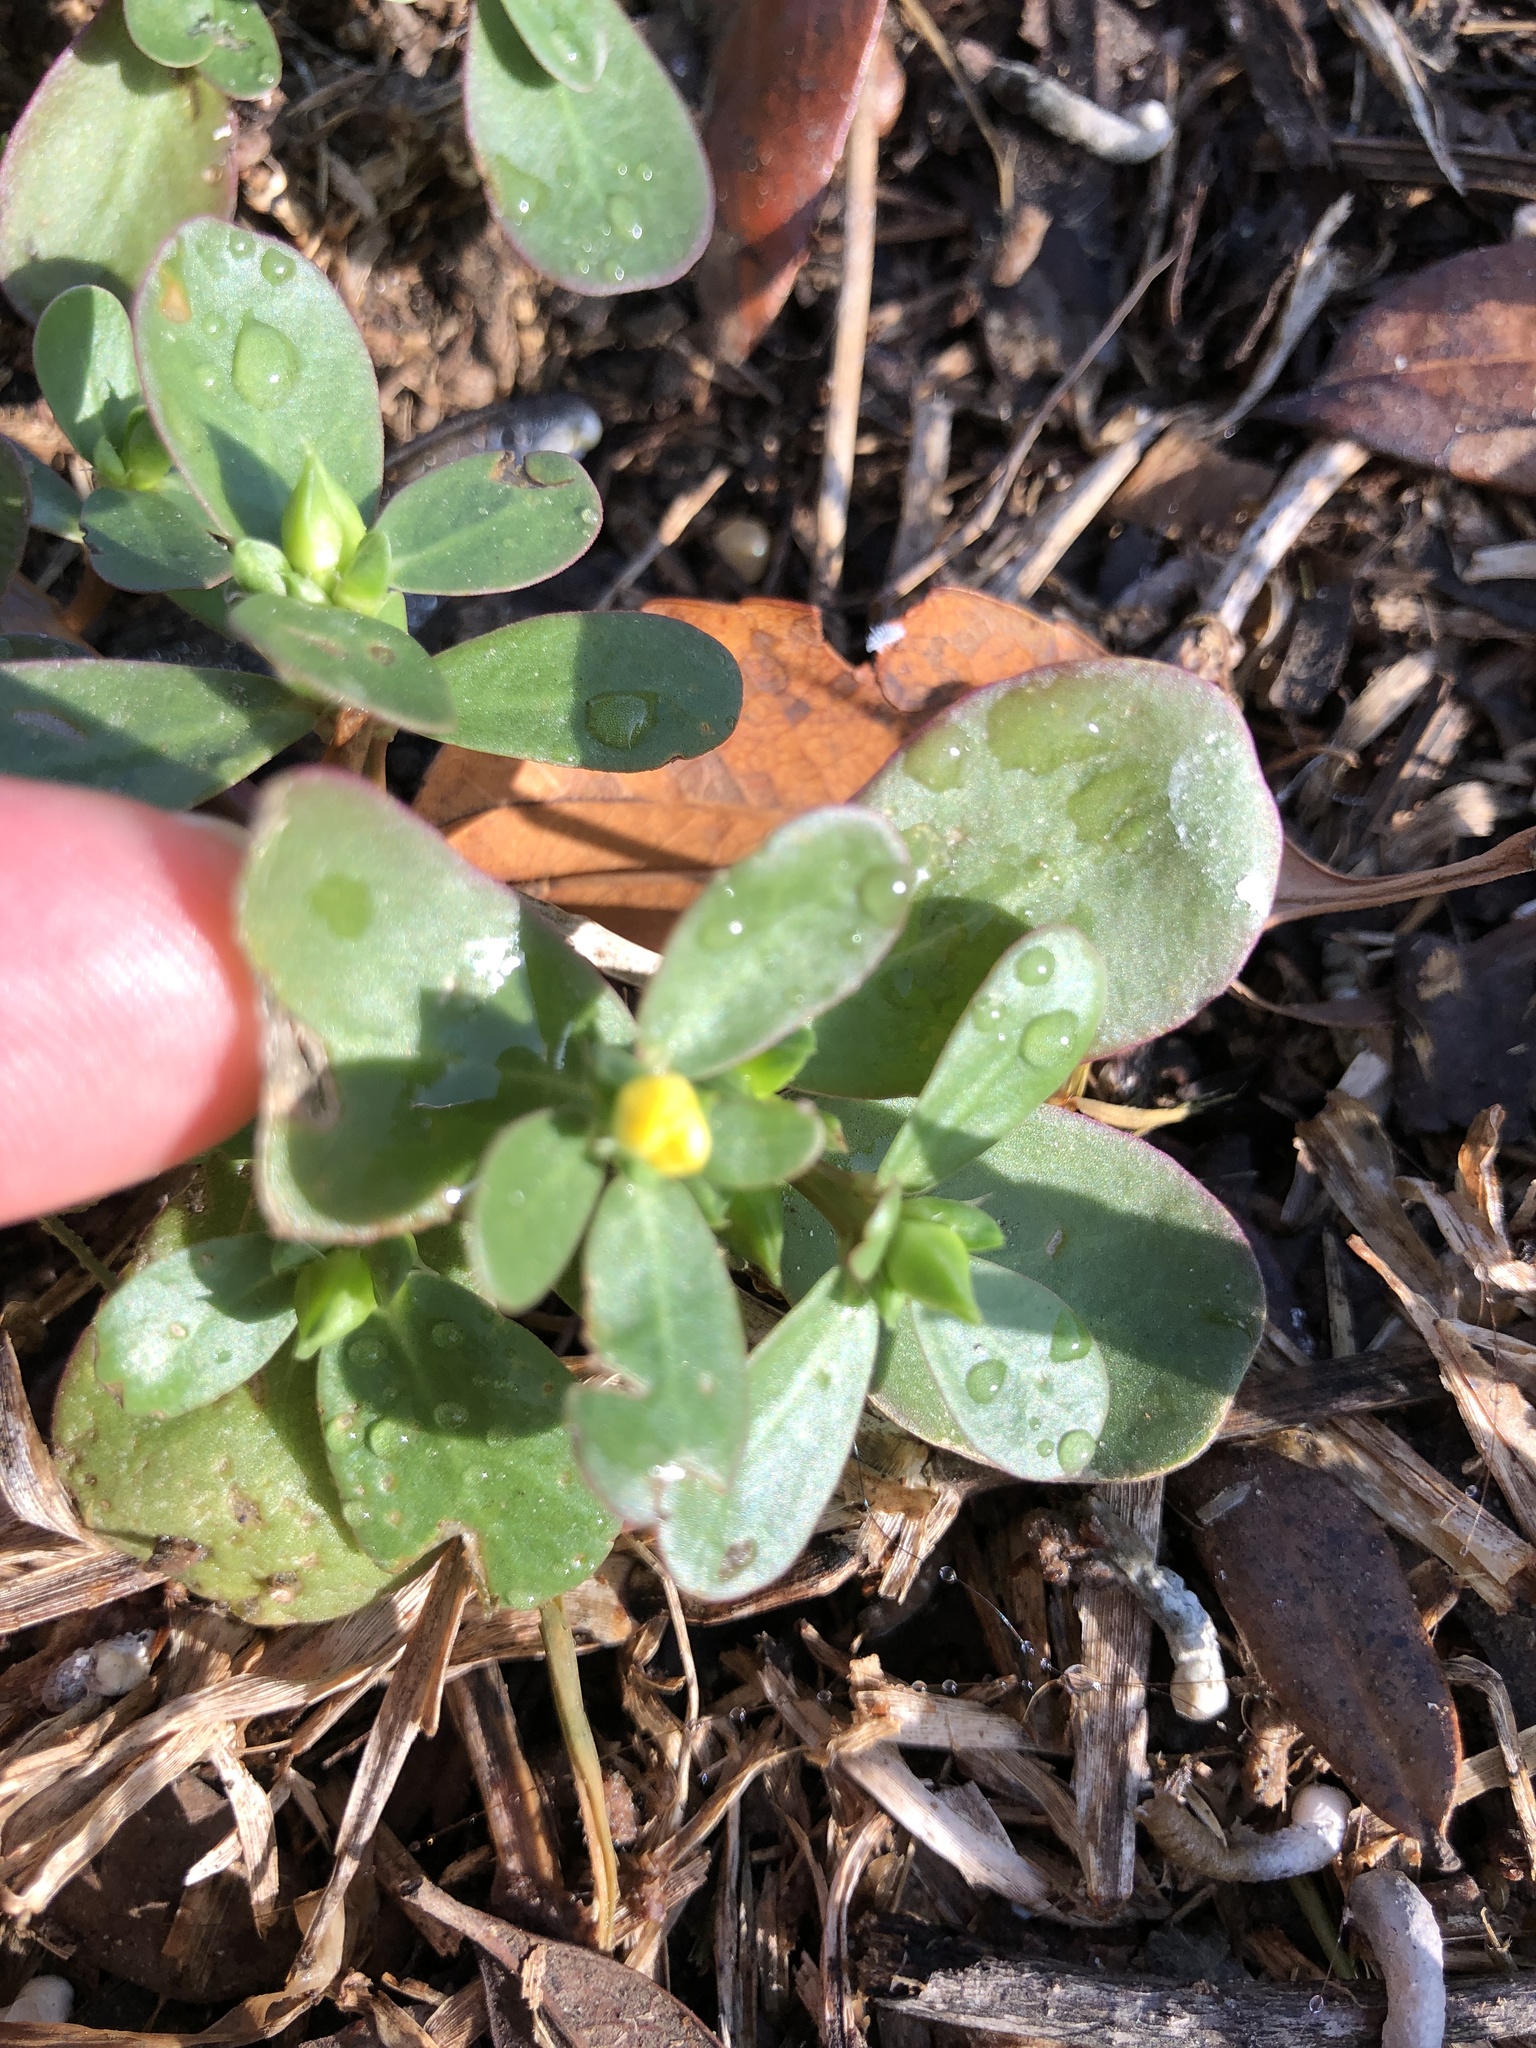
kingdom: Plantae
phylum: Tracheophyta
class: Magnoliopsida
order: Caryophyllales
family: Portulacaceae
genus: Portulaca
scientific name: Portulaca oleracea
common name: Common purslane
